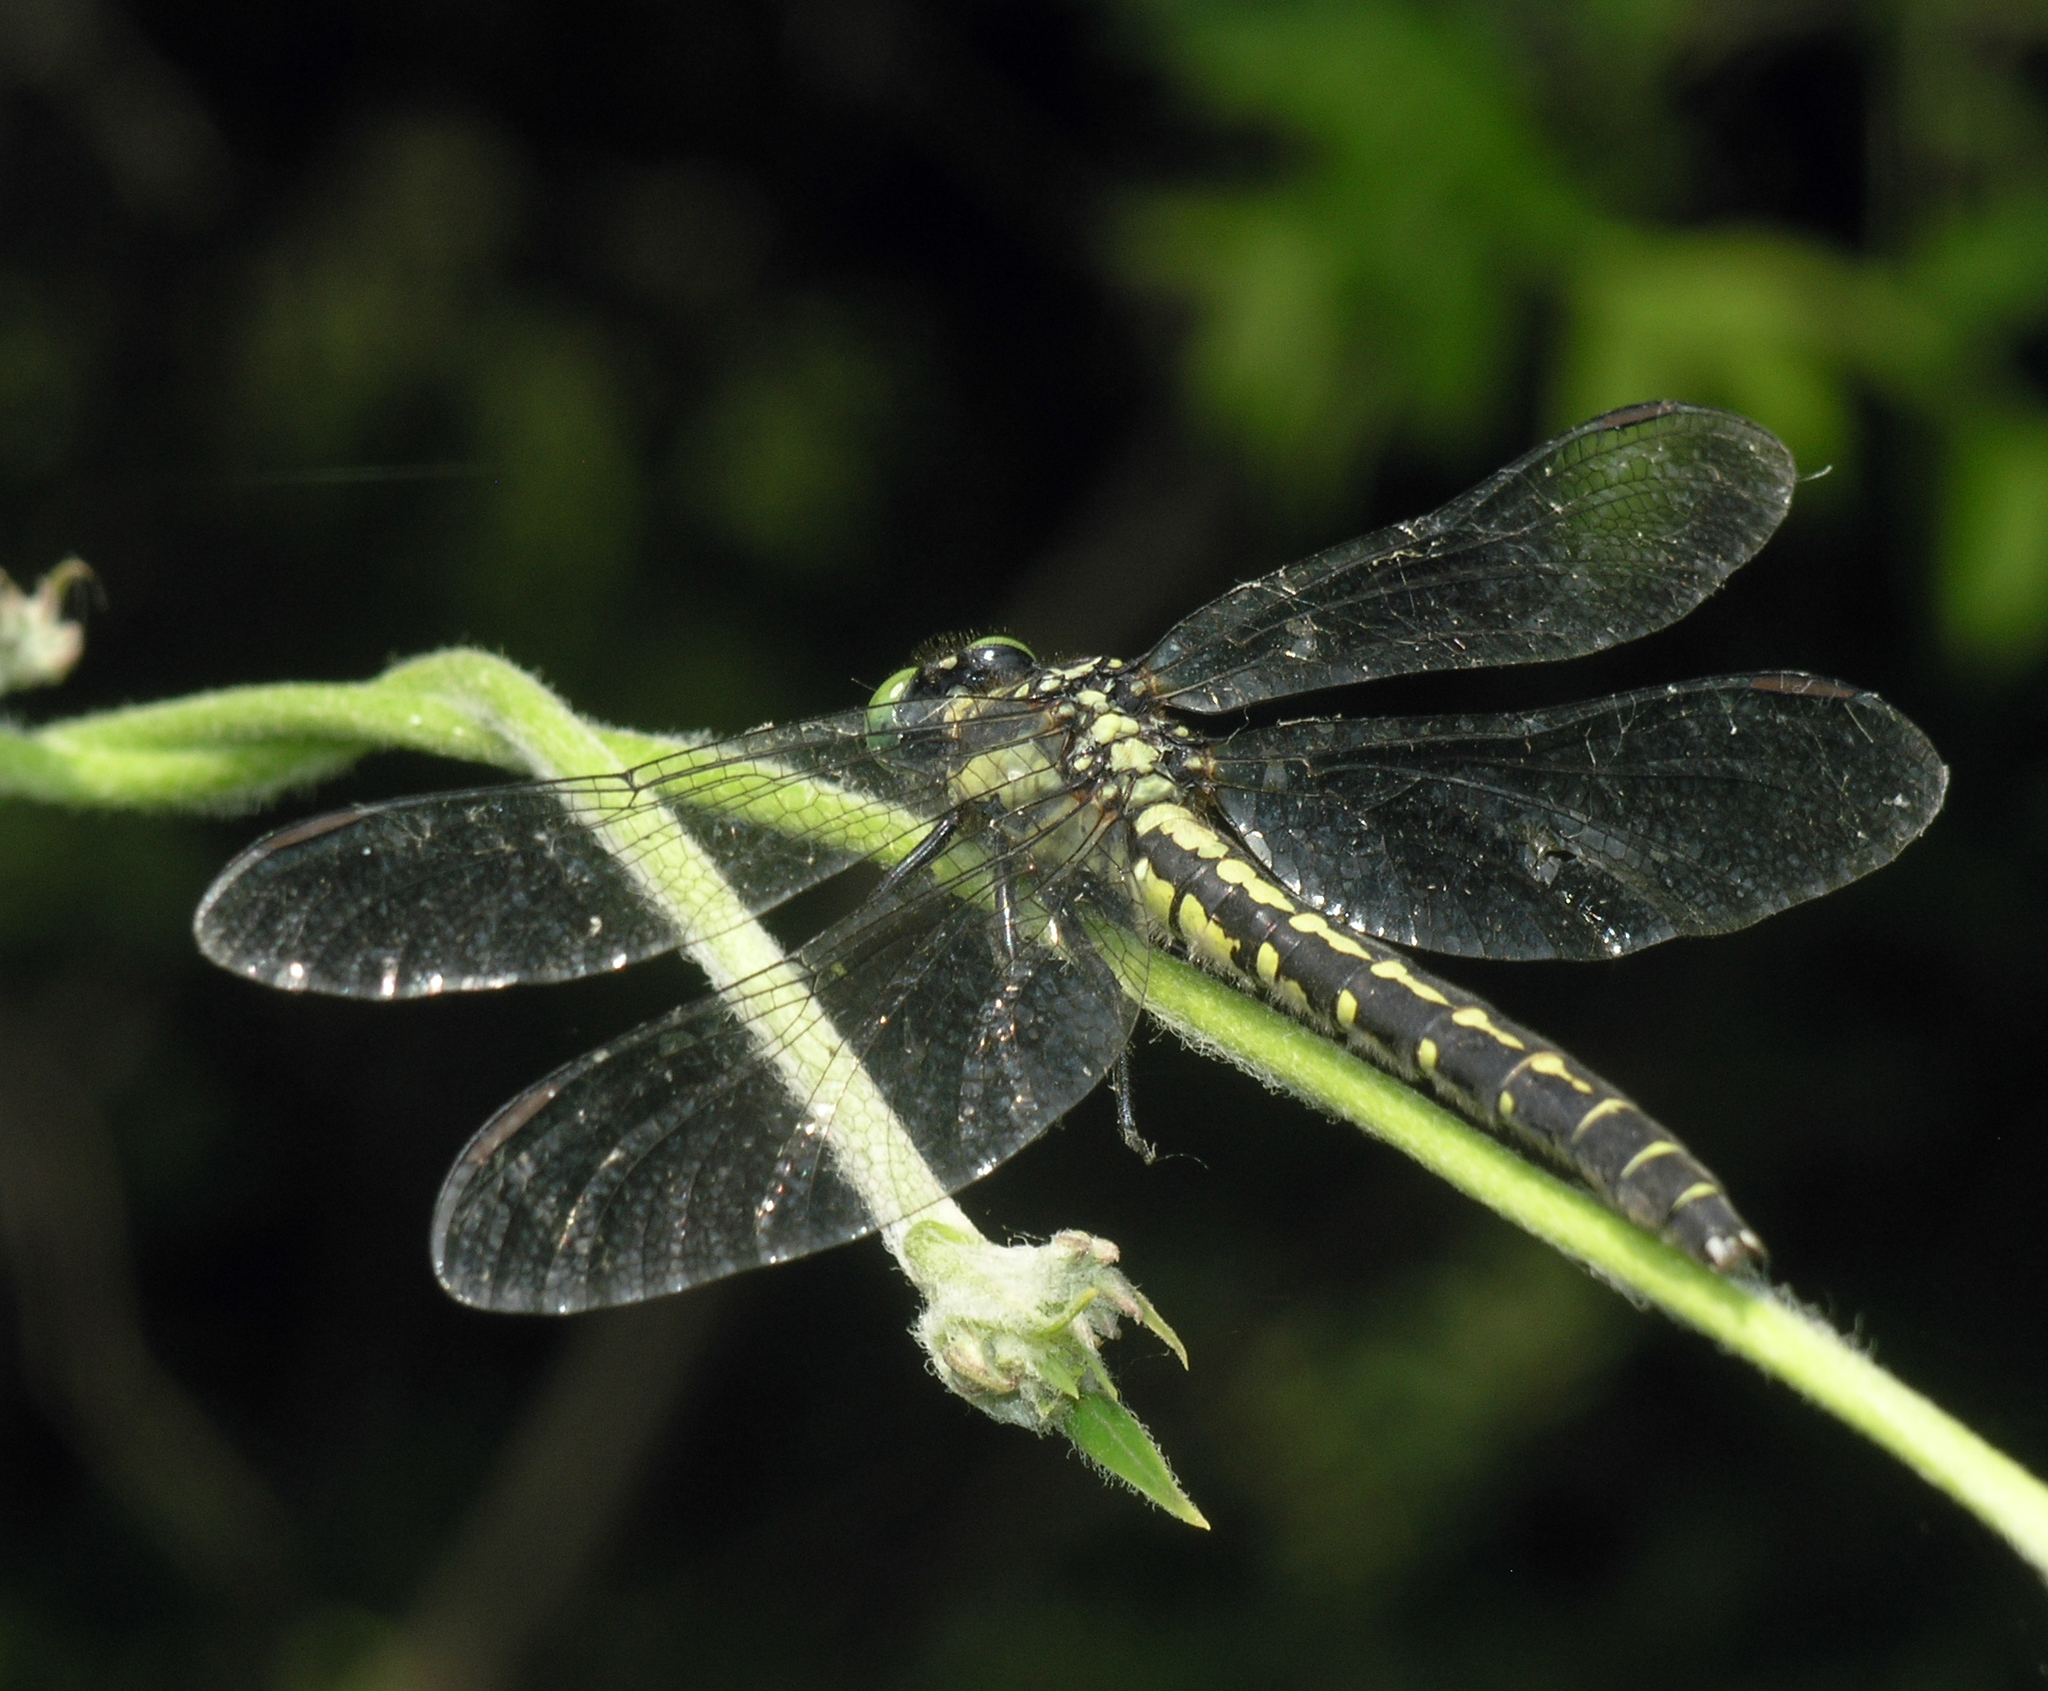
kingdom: Animalia
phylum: Arthropoda
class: Insecta
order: Odonata
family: Gomphidae
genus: Trigomphus
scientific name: Trigomphus nigripes
